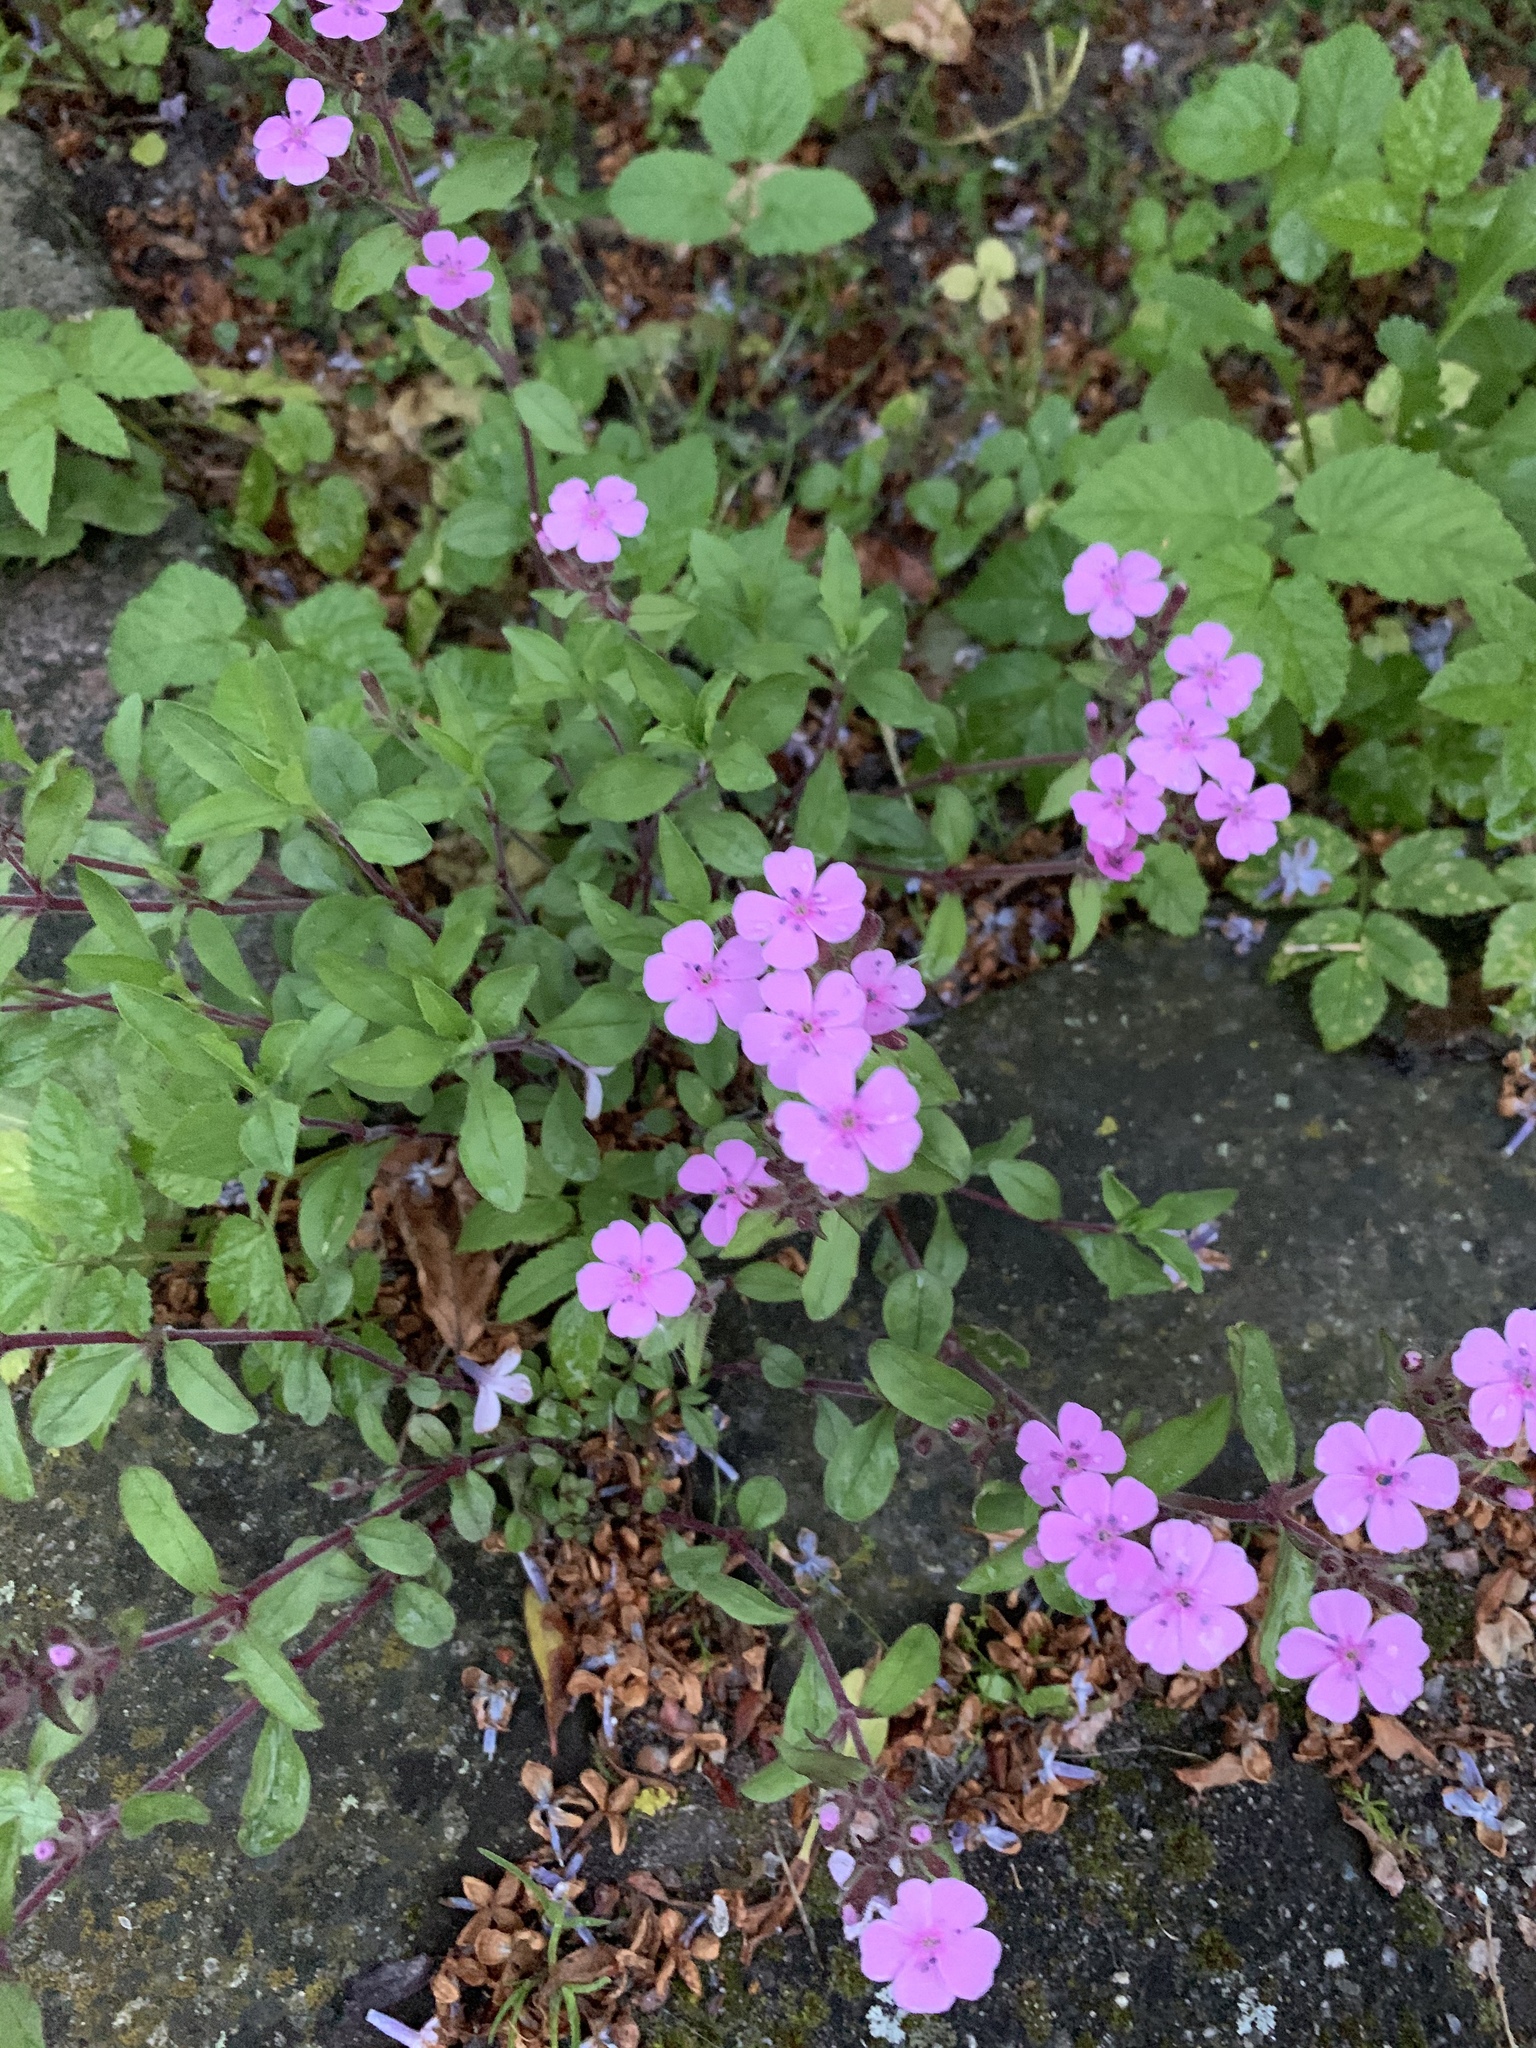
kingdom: Plantae
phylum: Tracheophyta
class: Magnoliopsida
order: Caryophyllales
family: Caryophyllaceae
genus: Silene
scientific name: Silene dioica
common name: Red campion
